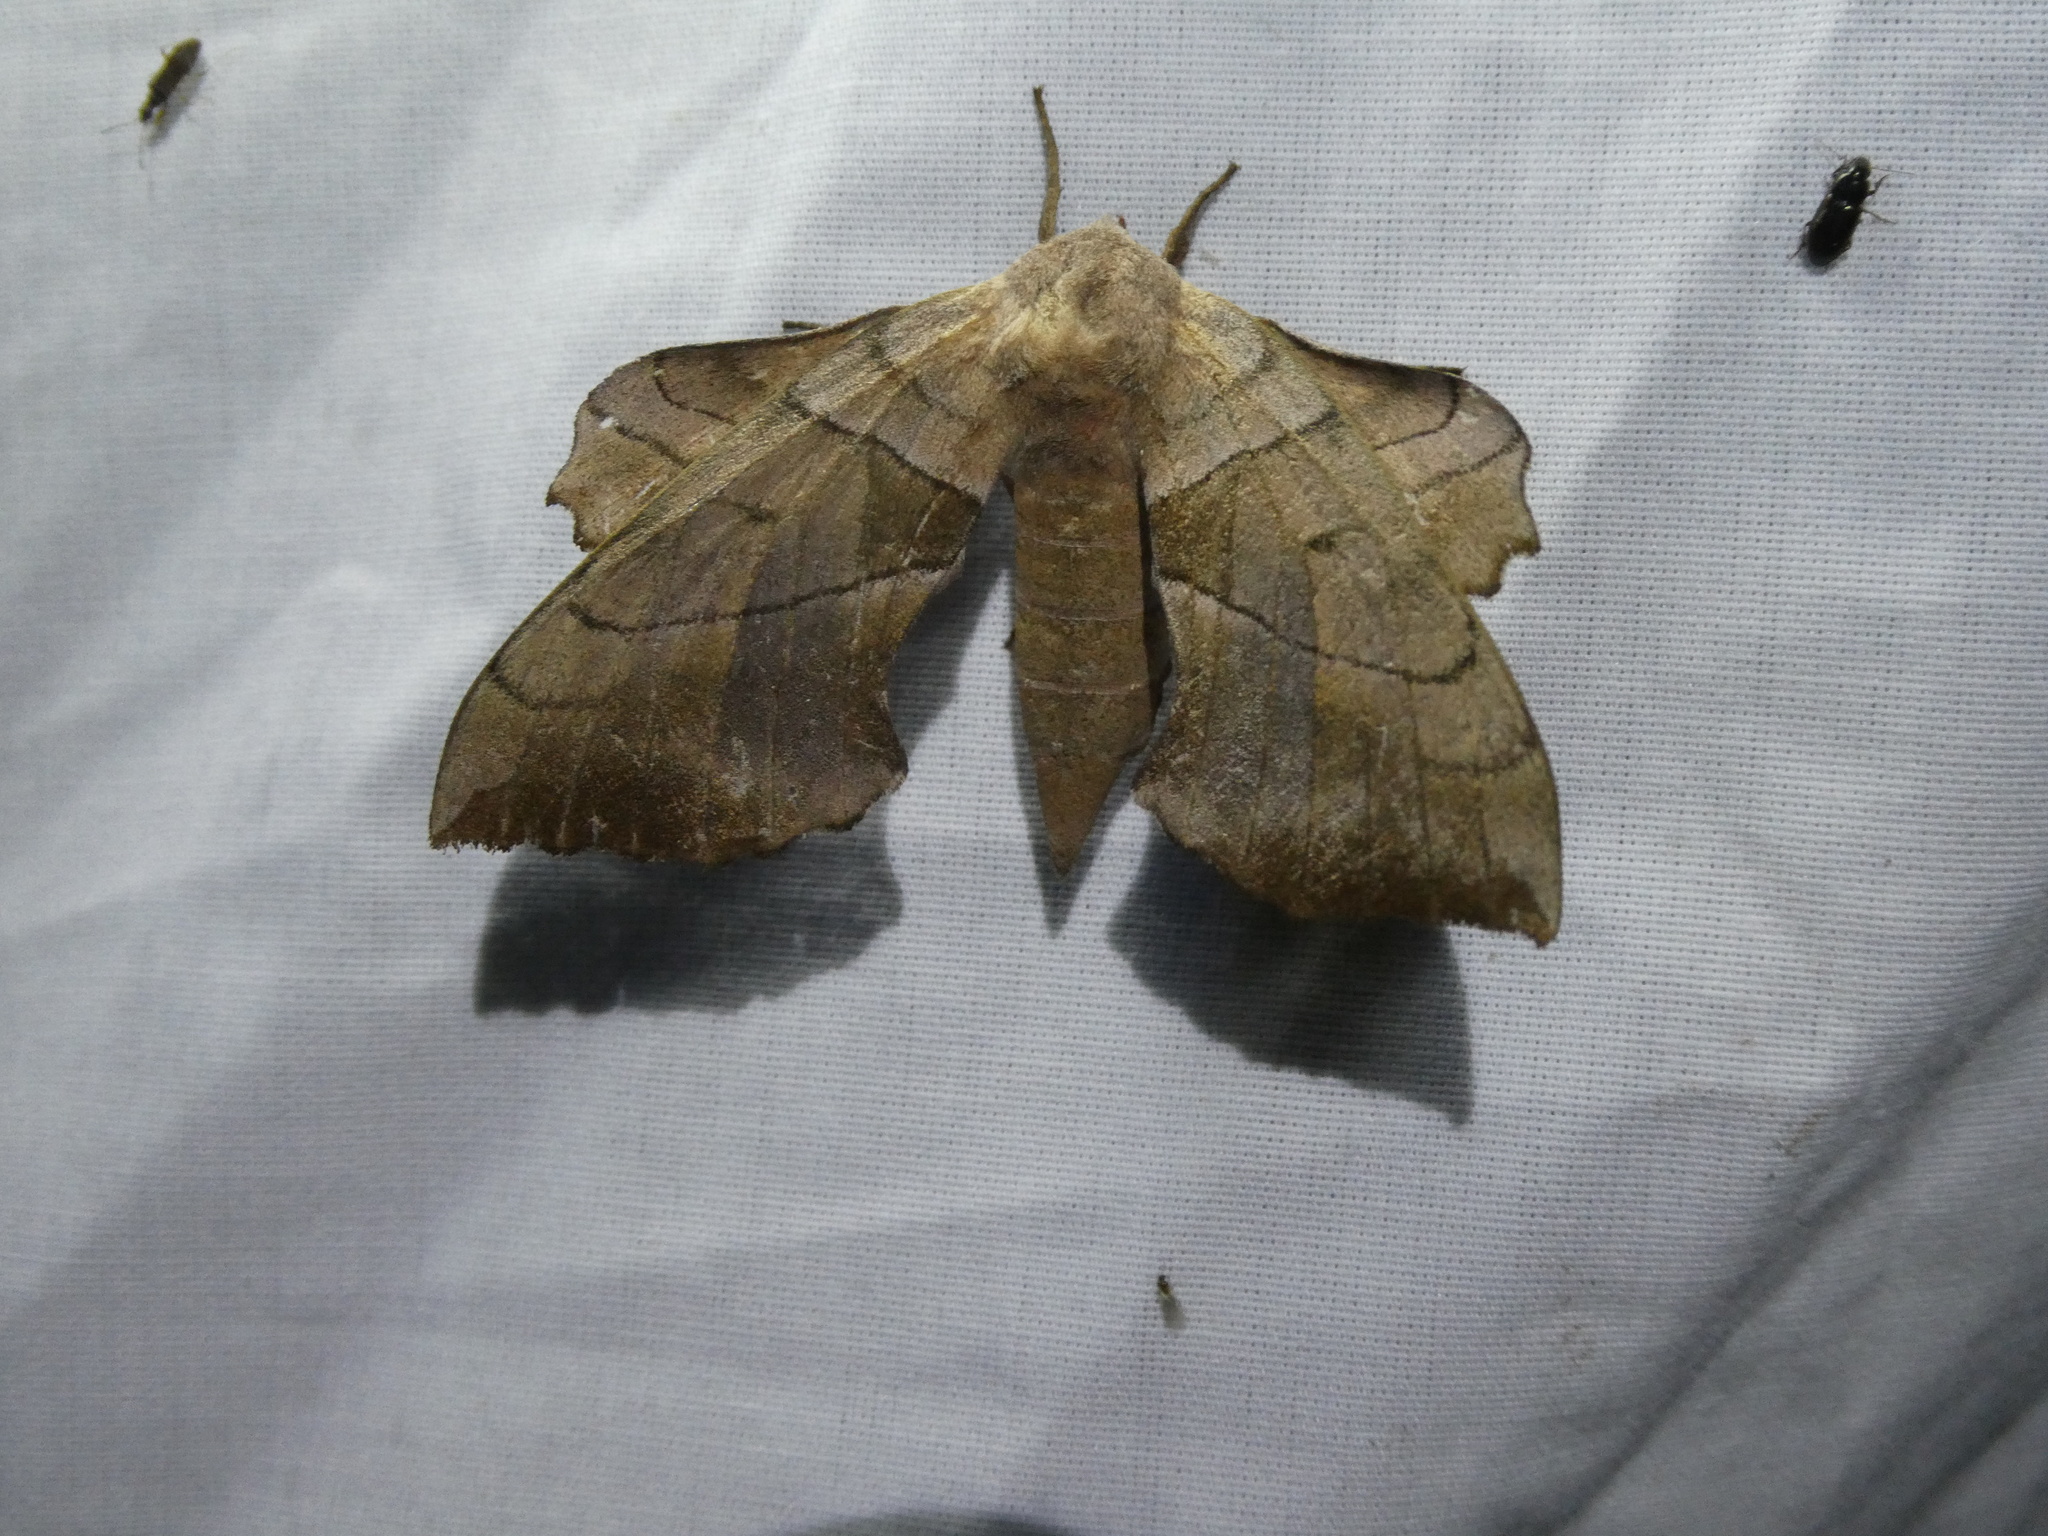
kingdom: Animalia
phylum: Arthropoda
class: Insecta
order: Lepidoptera
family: Sphingidae
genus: Amorpha
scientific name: Amorpha juglandis
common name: Walnut sphinx
